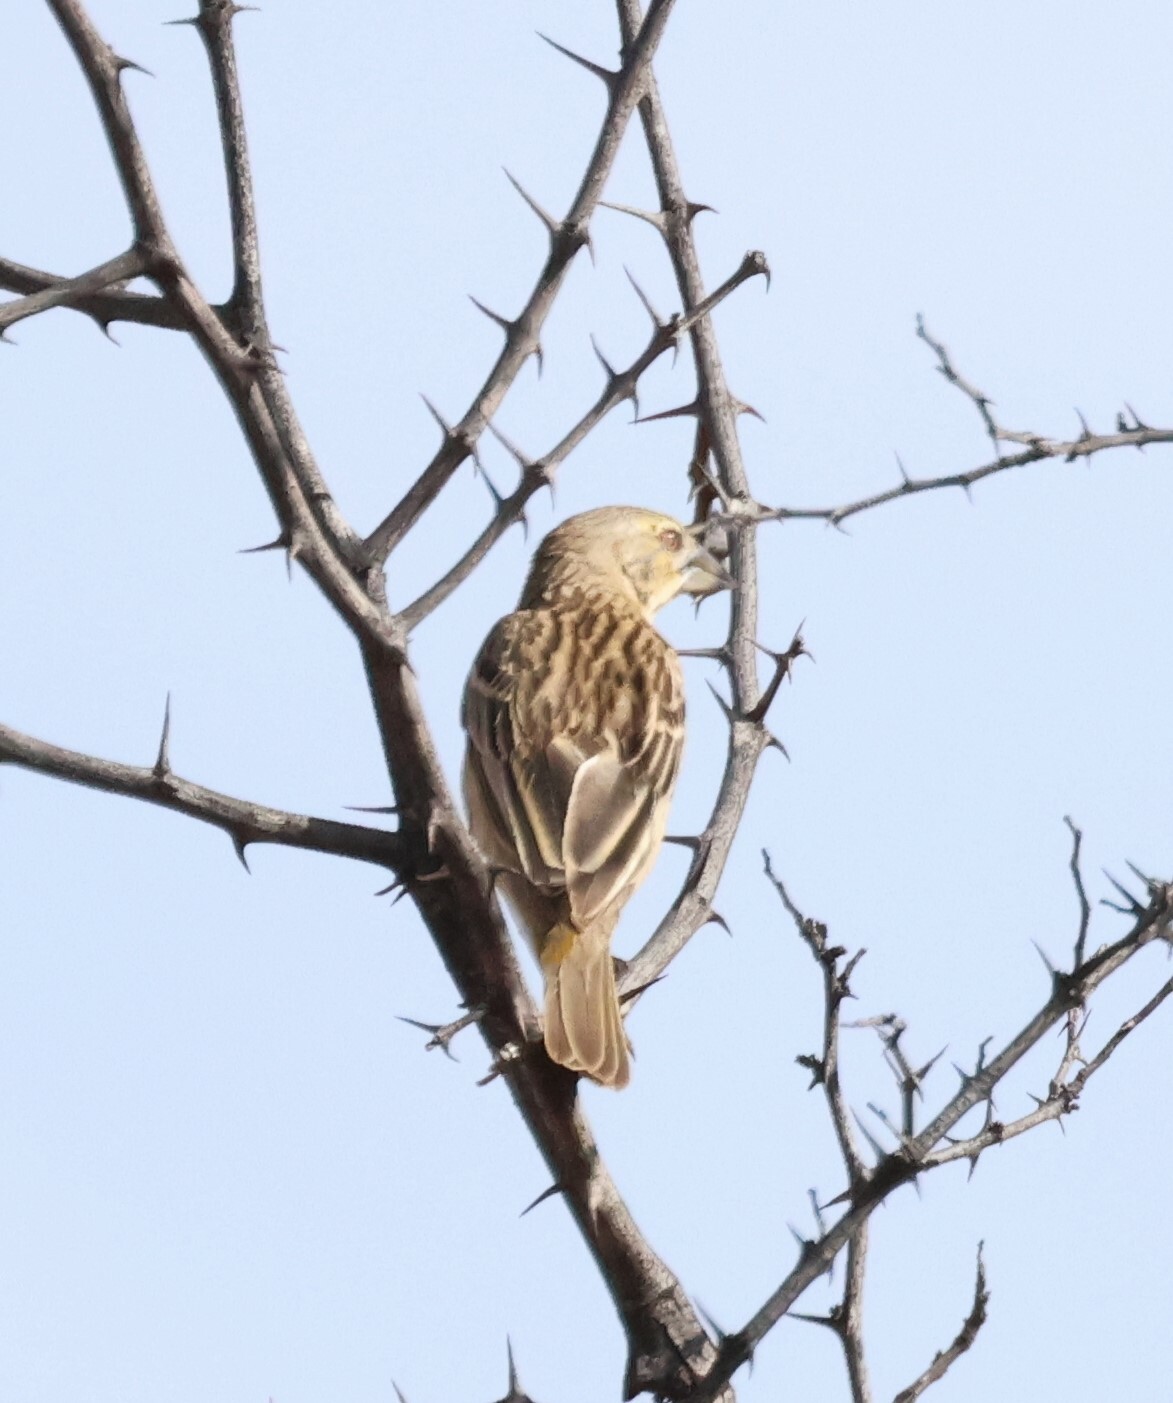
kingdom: Animalia
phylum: Chordata
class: Aves
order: Passeriformes
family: Ploceidae
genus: Ploceus
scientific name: Ploceus rubiginosus
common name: Chestnut weaver
